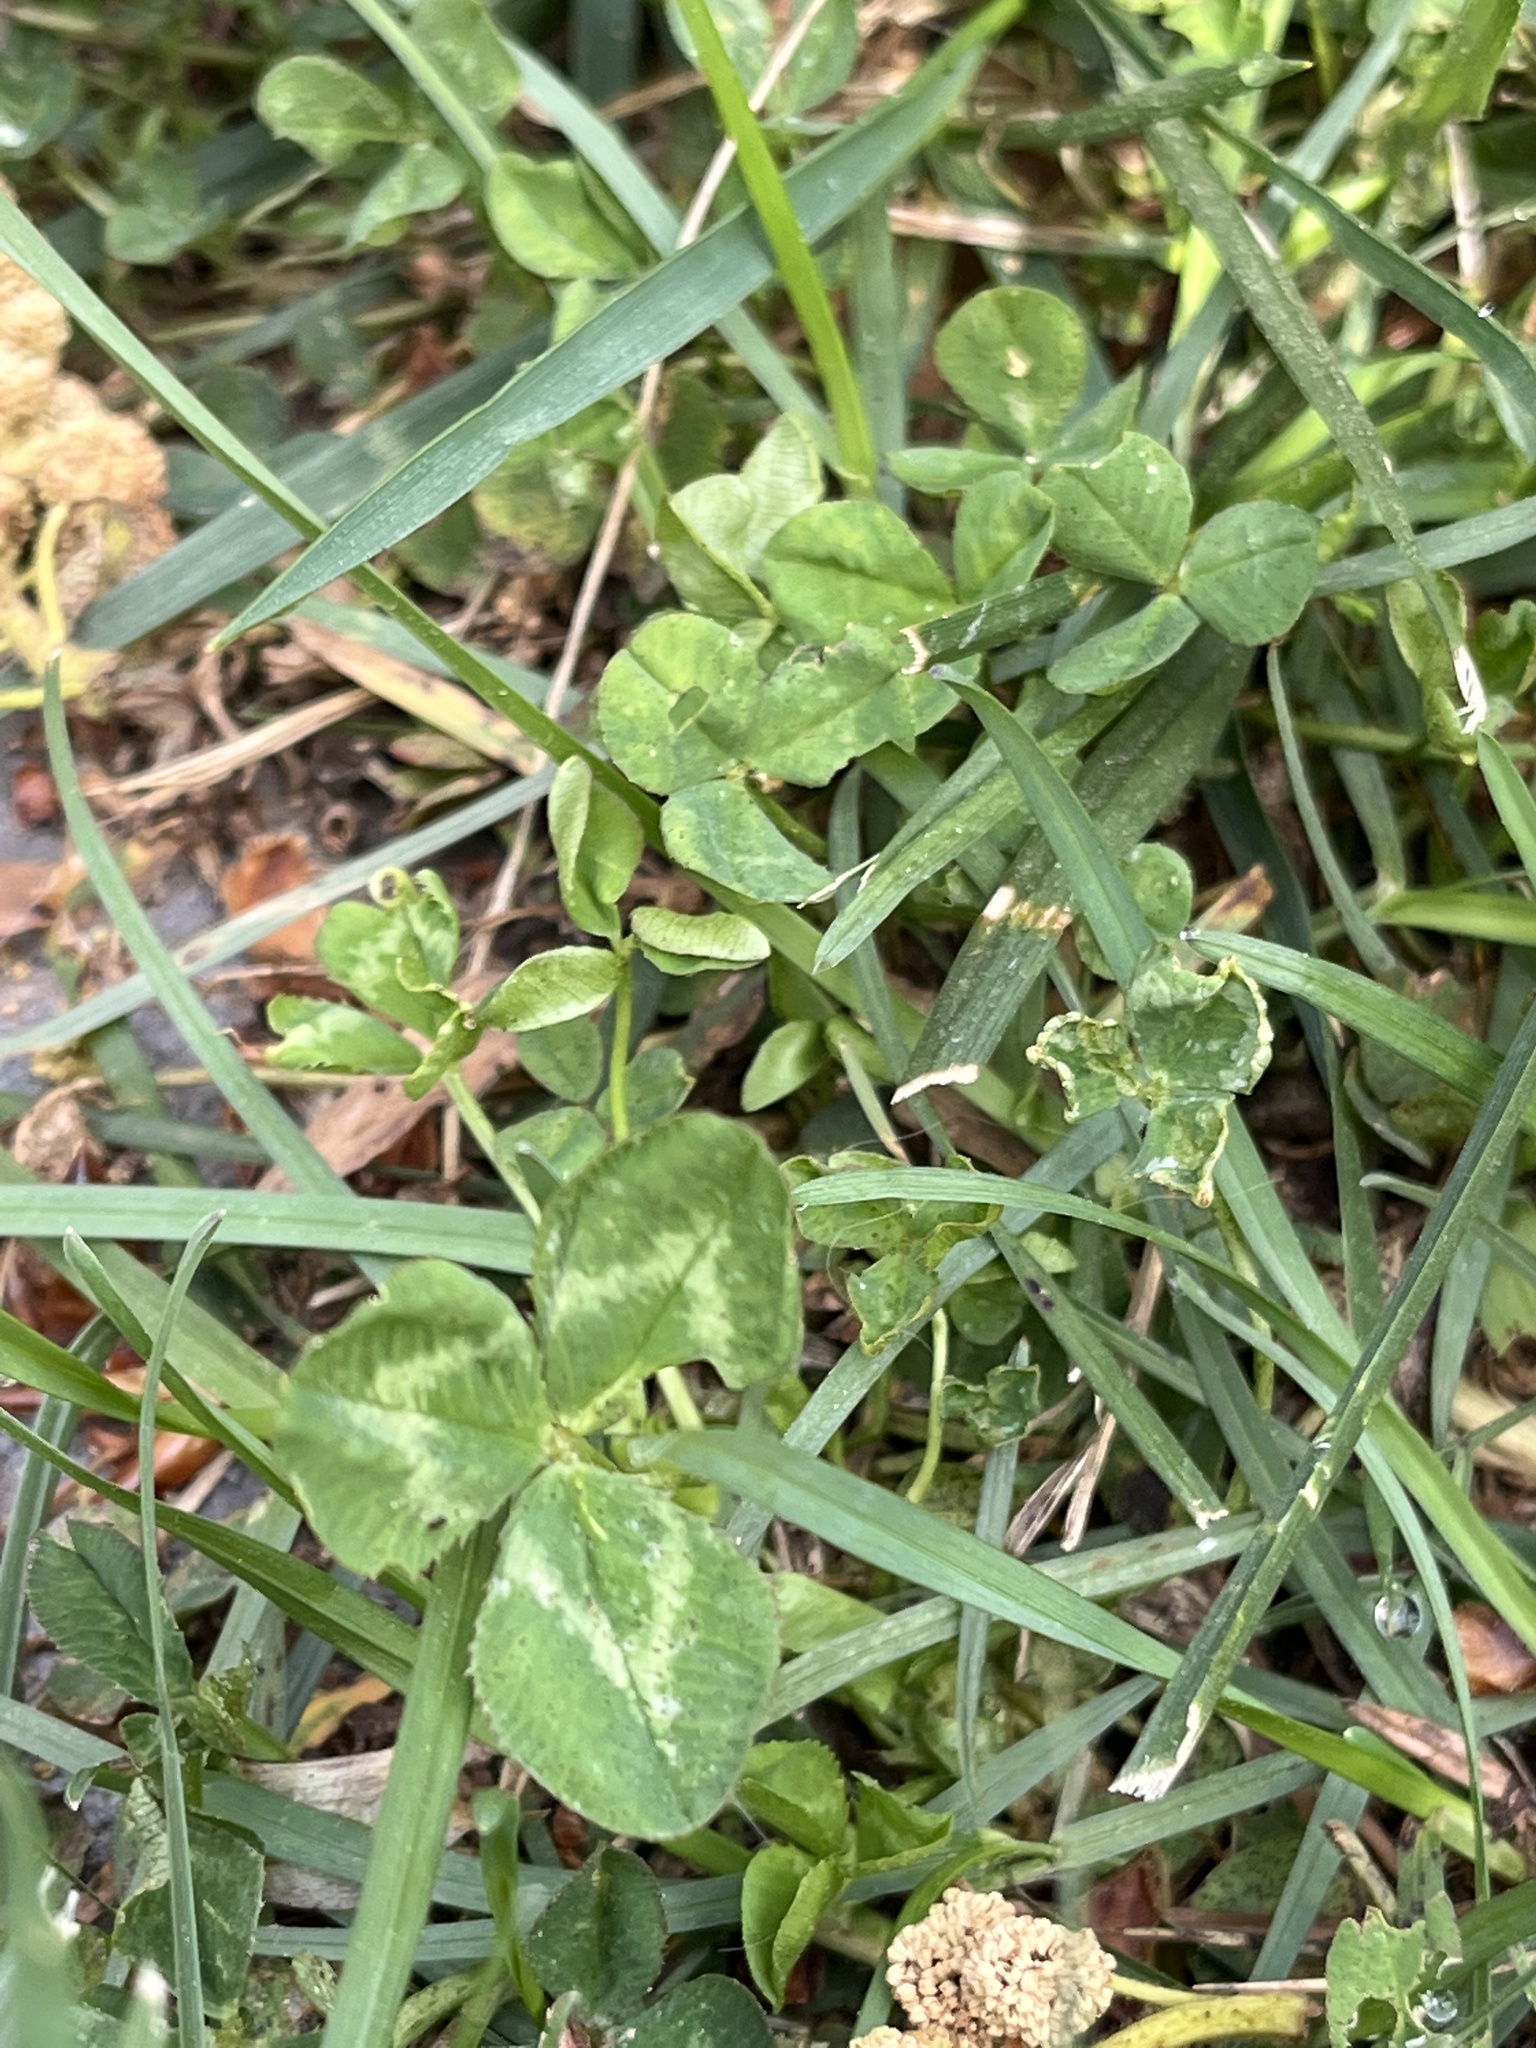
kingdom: Plantae
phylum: Tracheophyta
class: Magnoliopsida
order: Fabales
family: Fabaceae
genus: Trifolium
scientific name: Trifolium repens
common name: White clover
